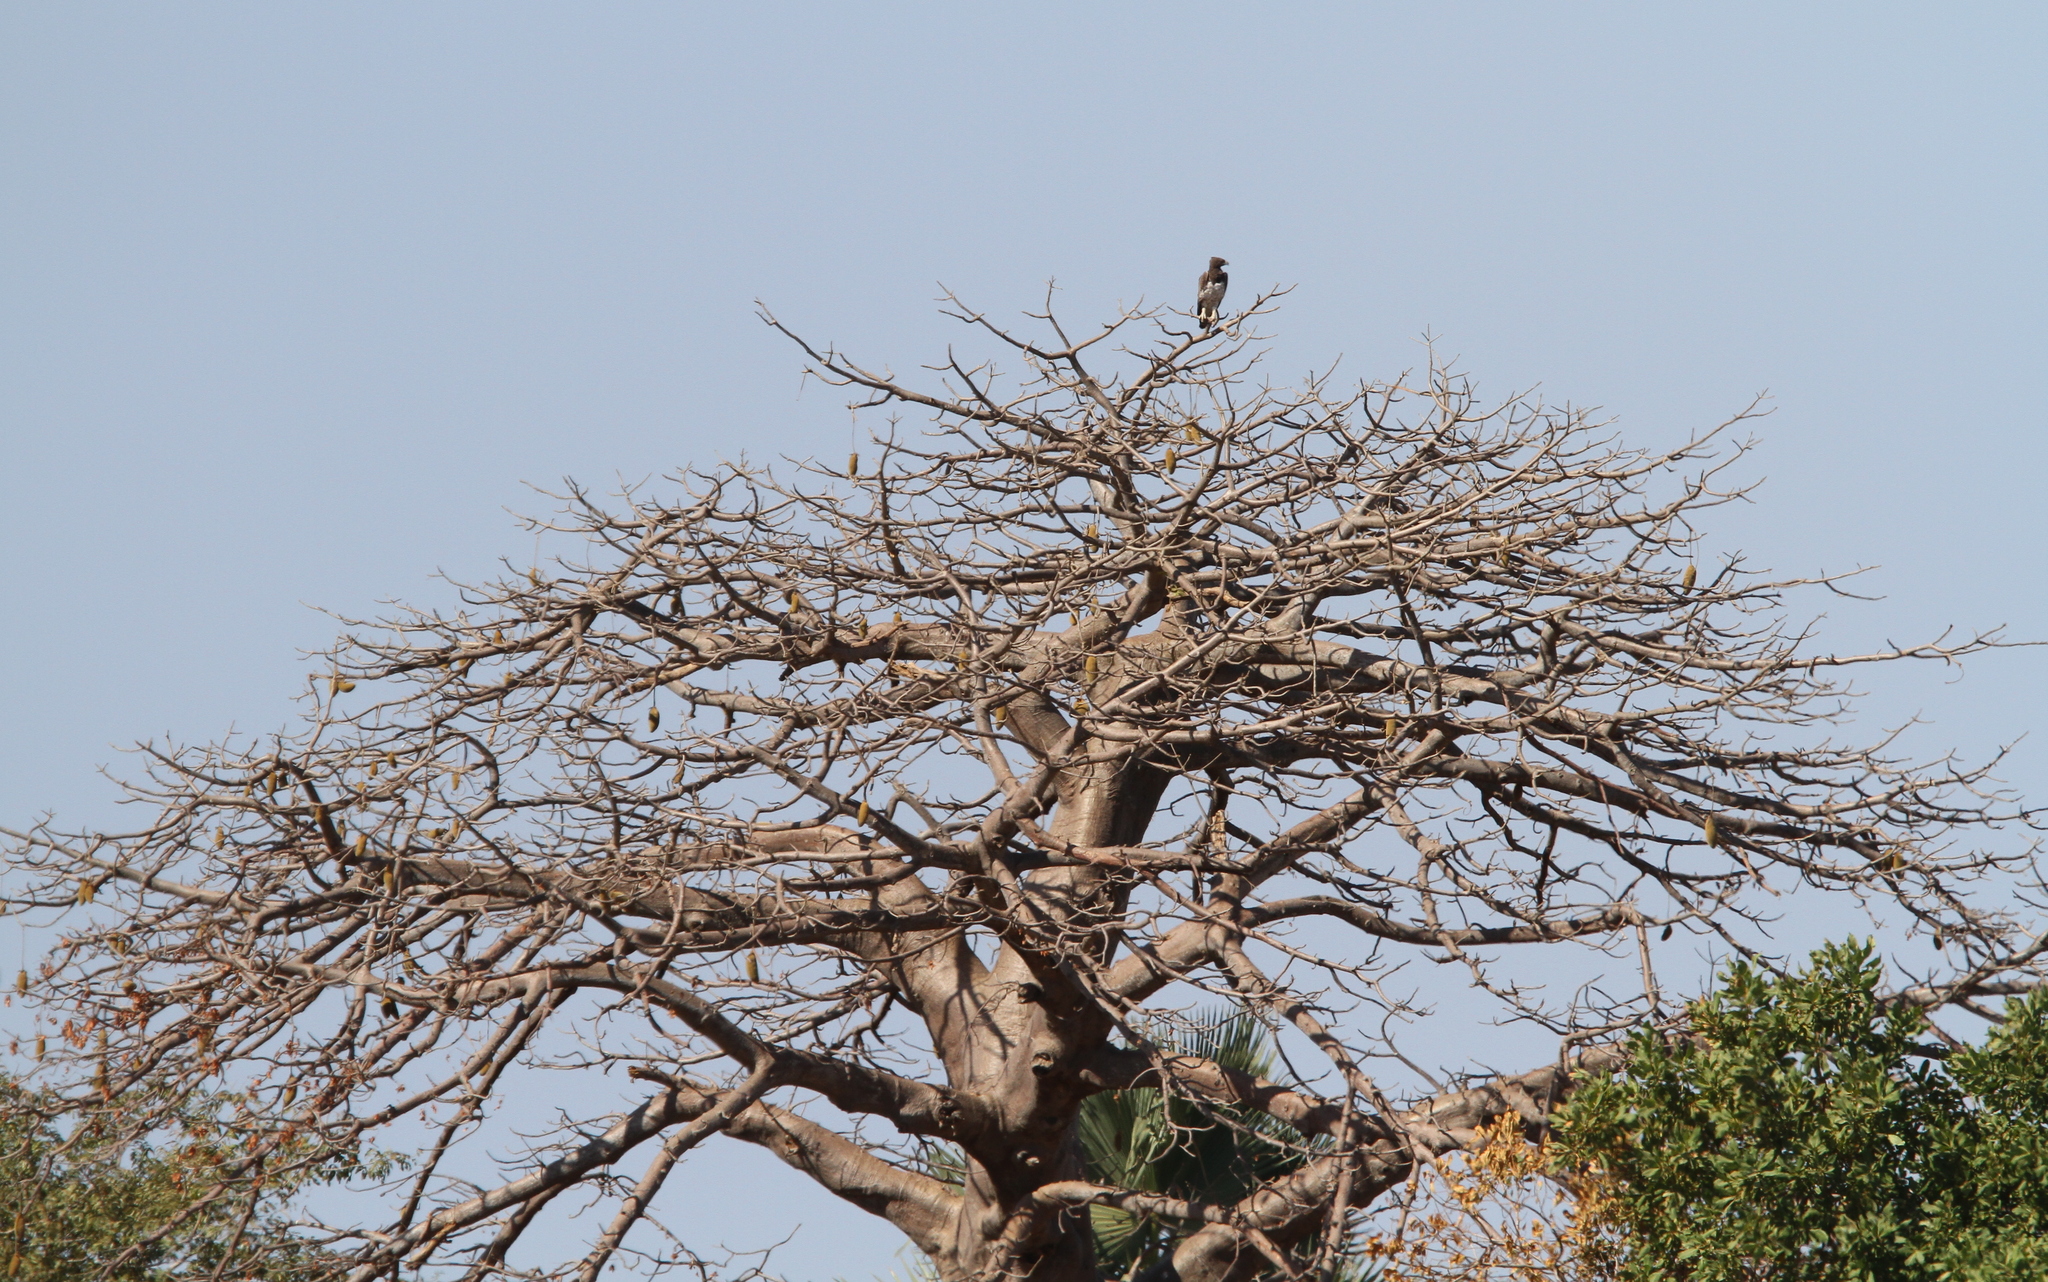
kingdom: Animalia
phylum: Chordata
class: Aves
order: Accipitriformes
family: Accipitridae
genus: Polemaetus
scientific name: Polemaetus bellicosus
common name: Martial eagle
